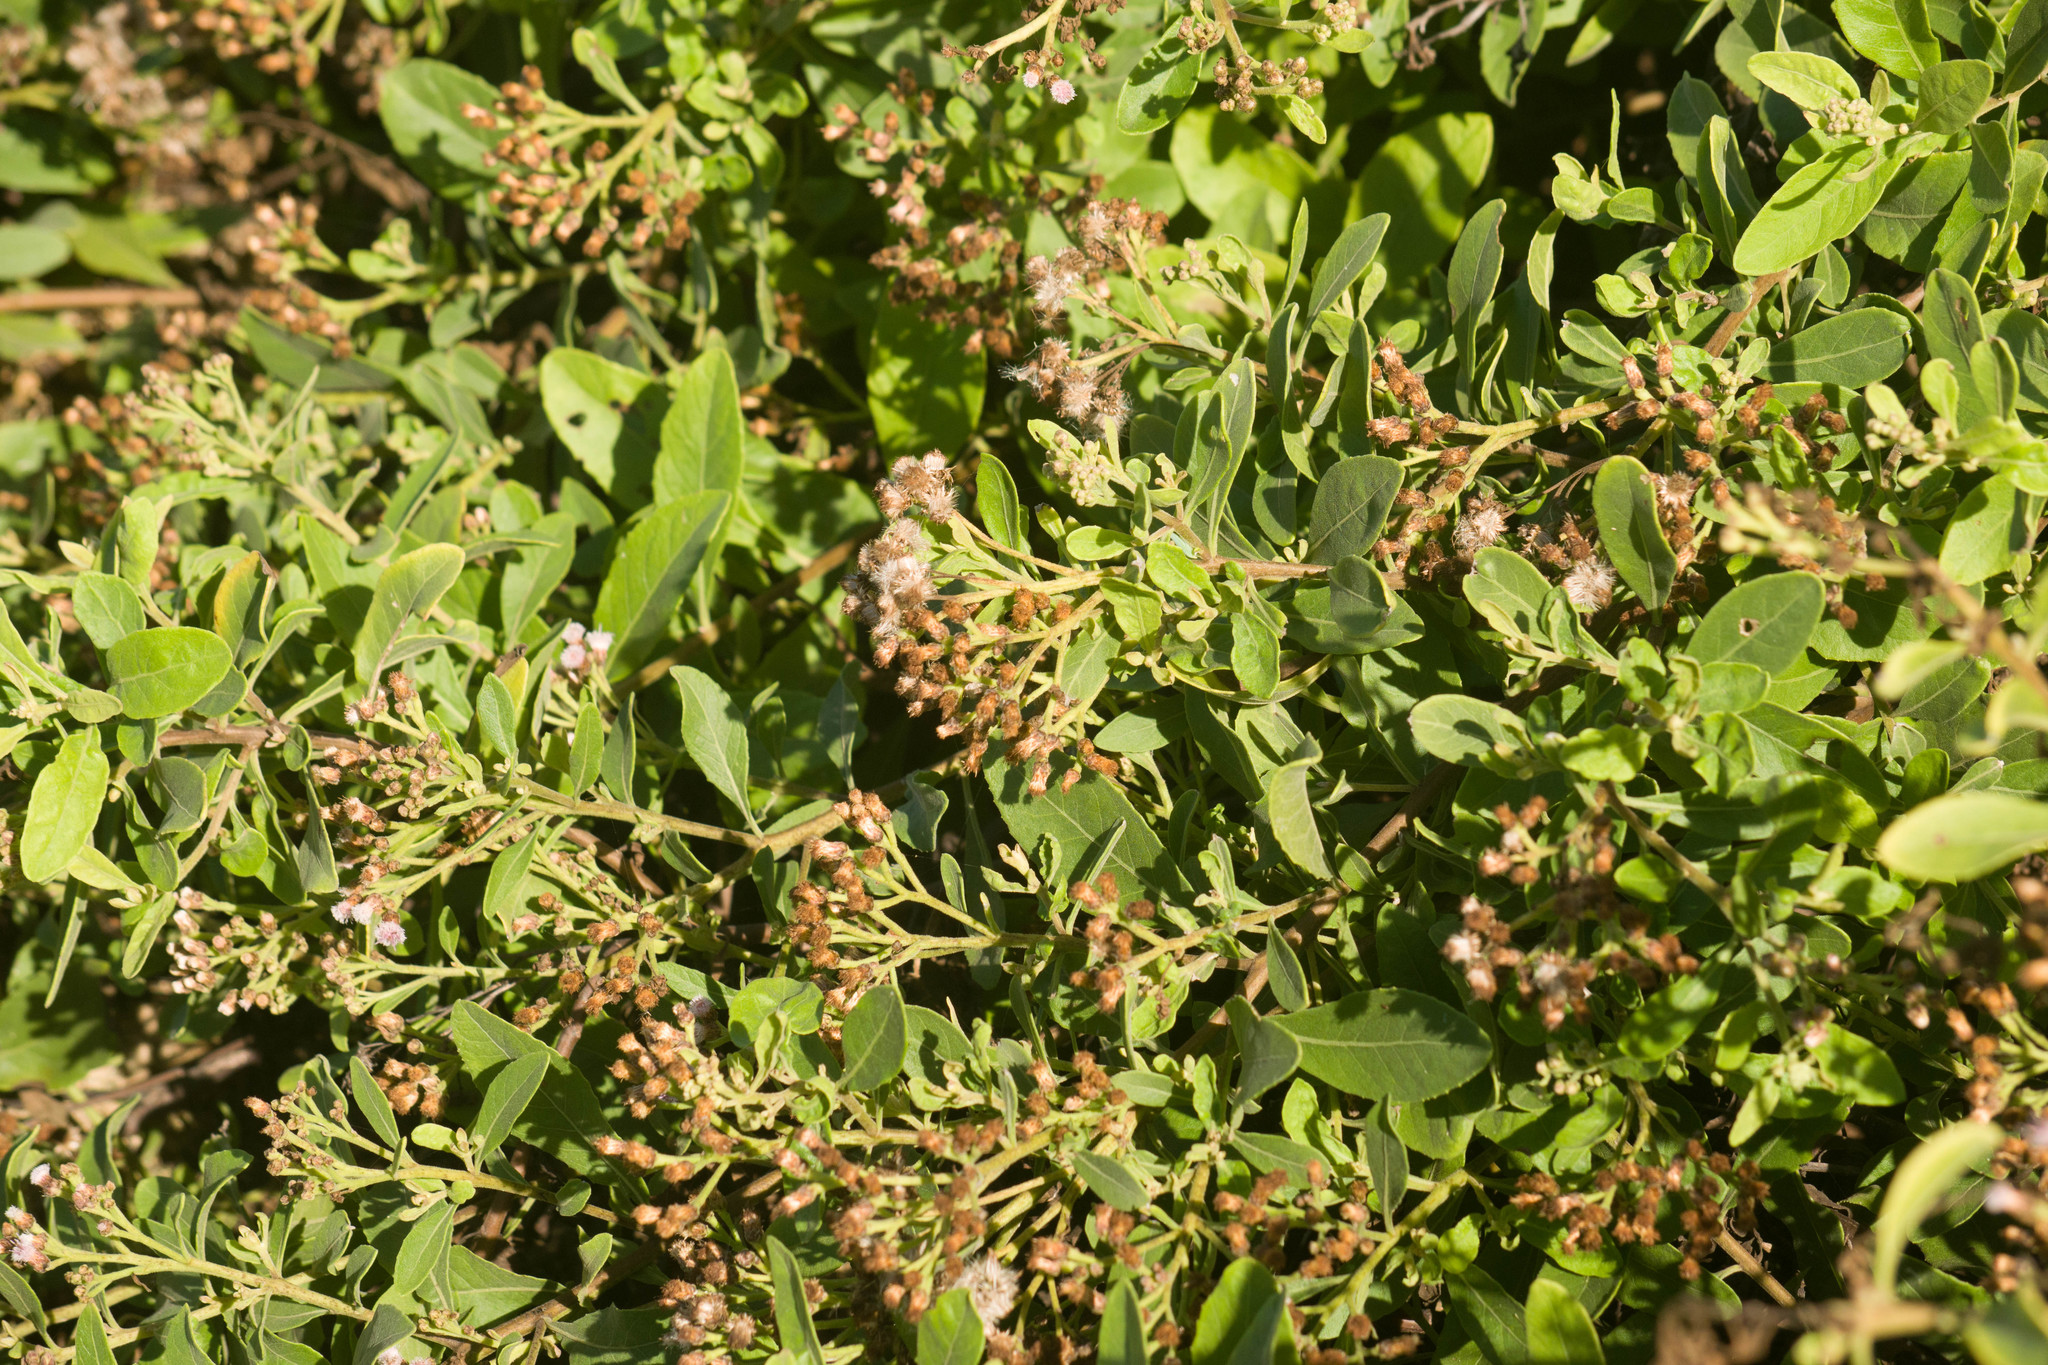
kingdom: Plantae
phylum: Tracheophyta
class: Magnoliopsida
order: Asterales
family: Asteraceae
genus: Pluchea
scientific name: Pluchea carolinensis
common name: Marsh fleabane
